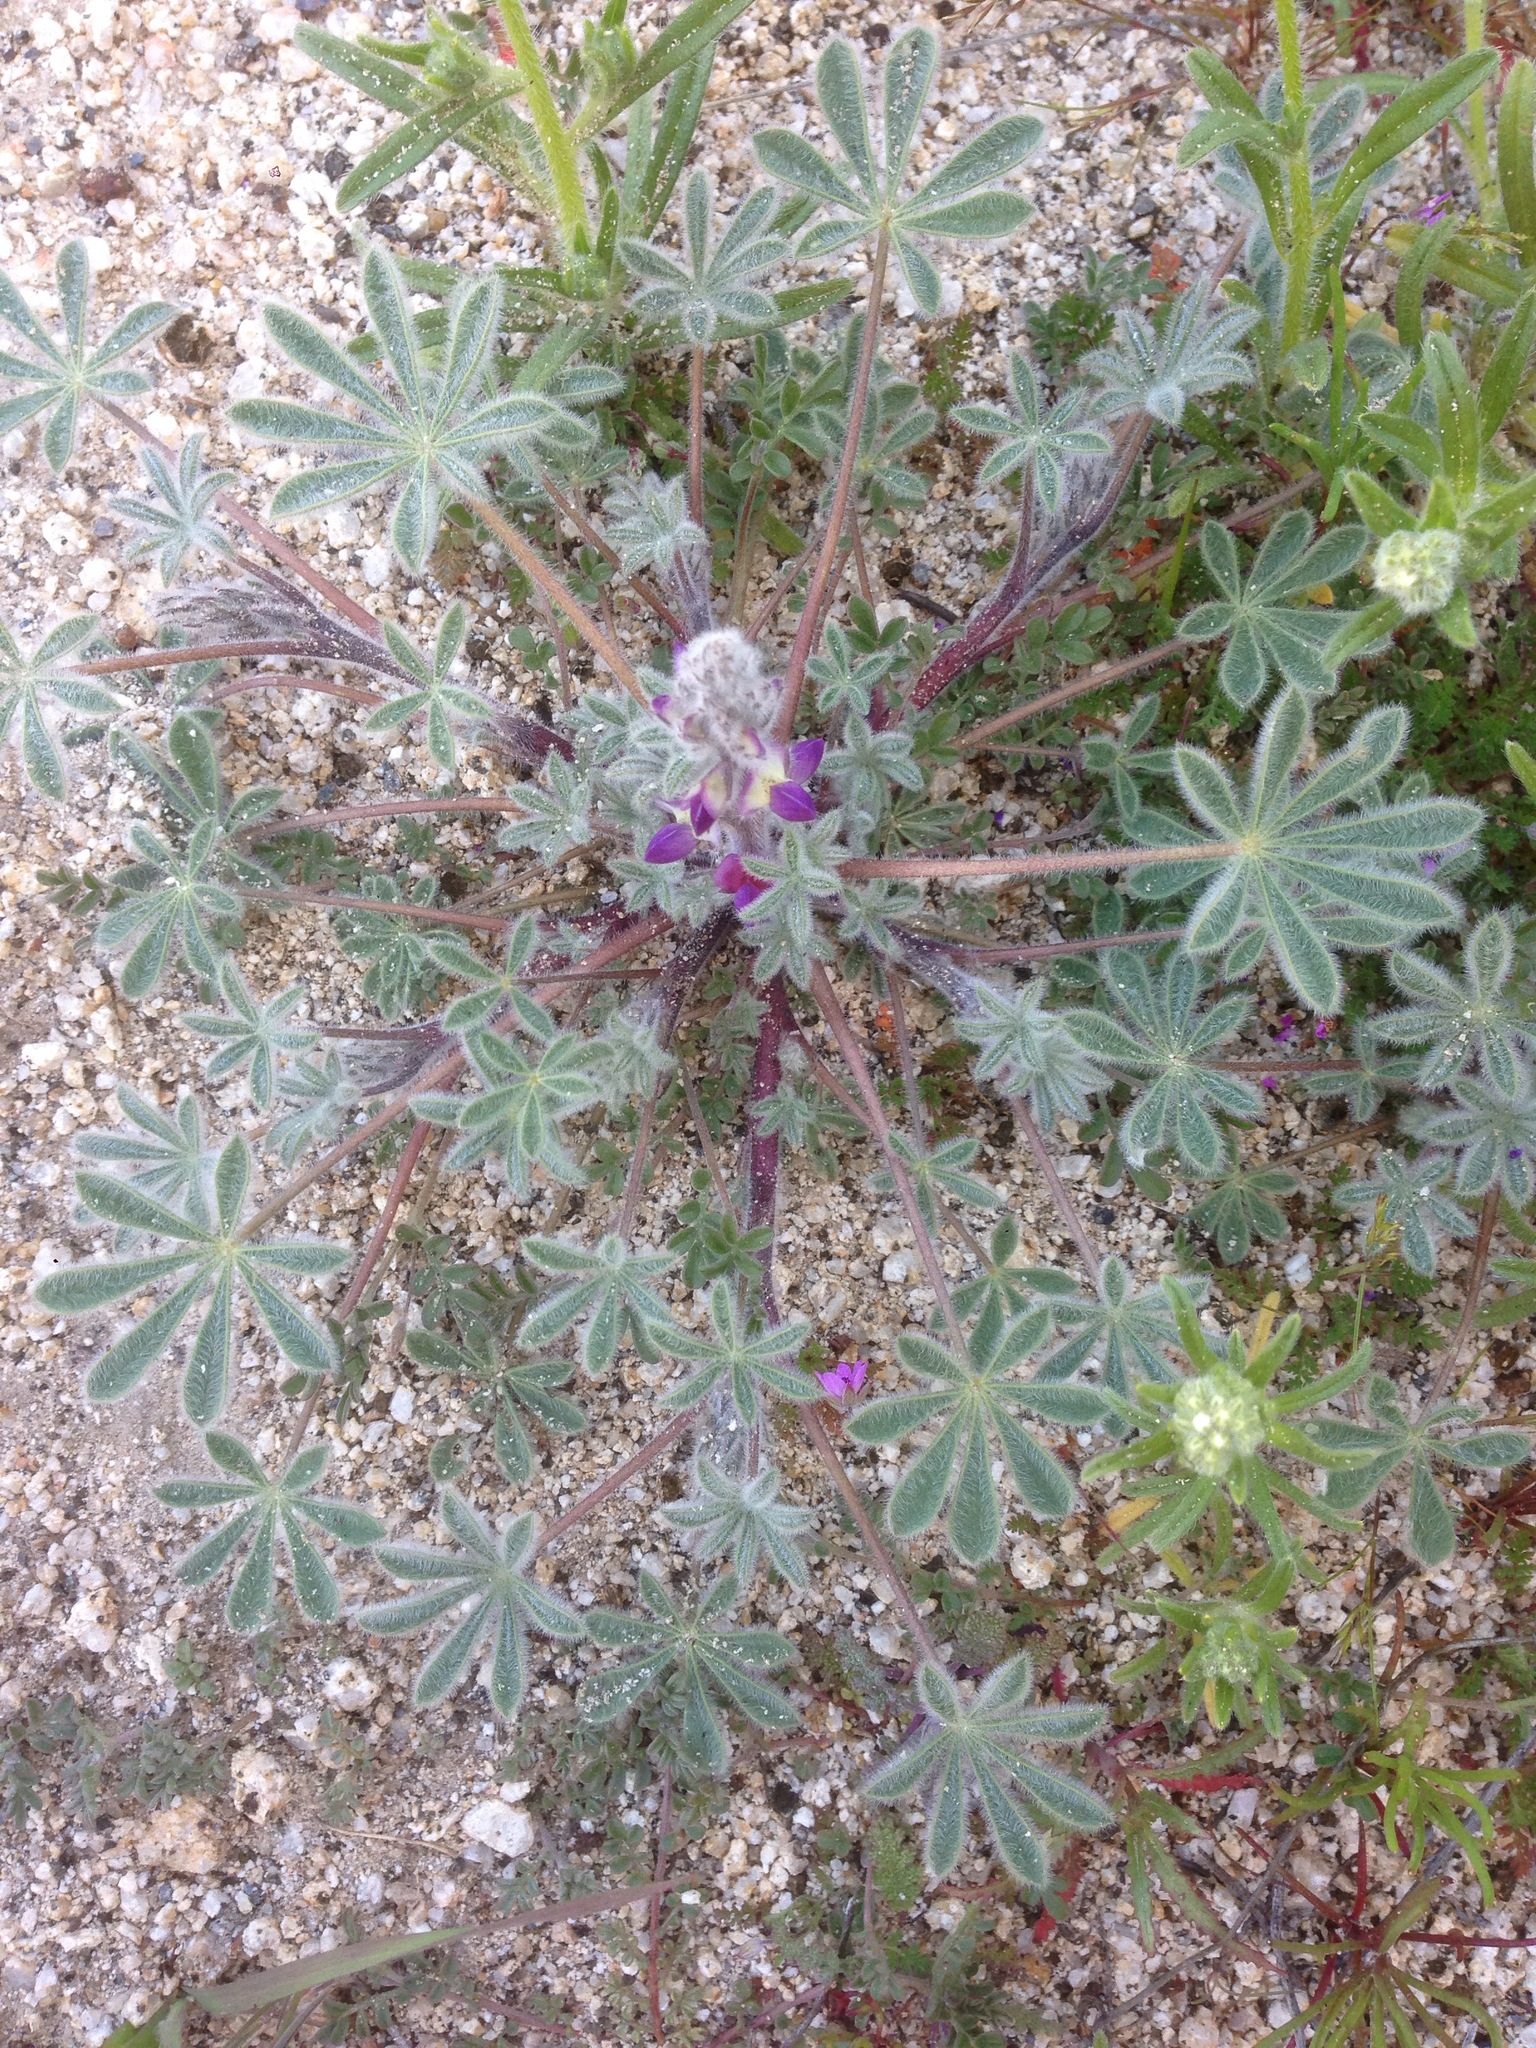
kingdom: Plantae
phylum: Tracheophyta
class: Magnoliopsida
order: Fabales
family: Fabaceae
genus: Lupinus
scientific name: Lupinus concinnus
